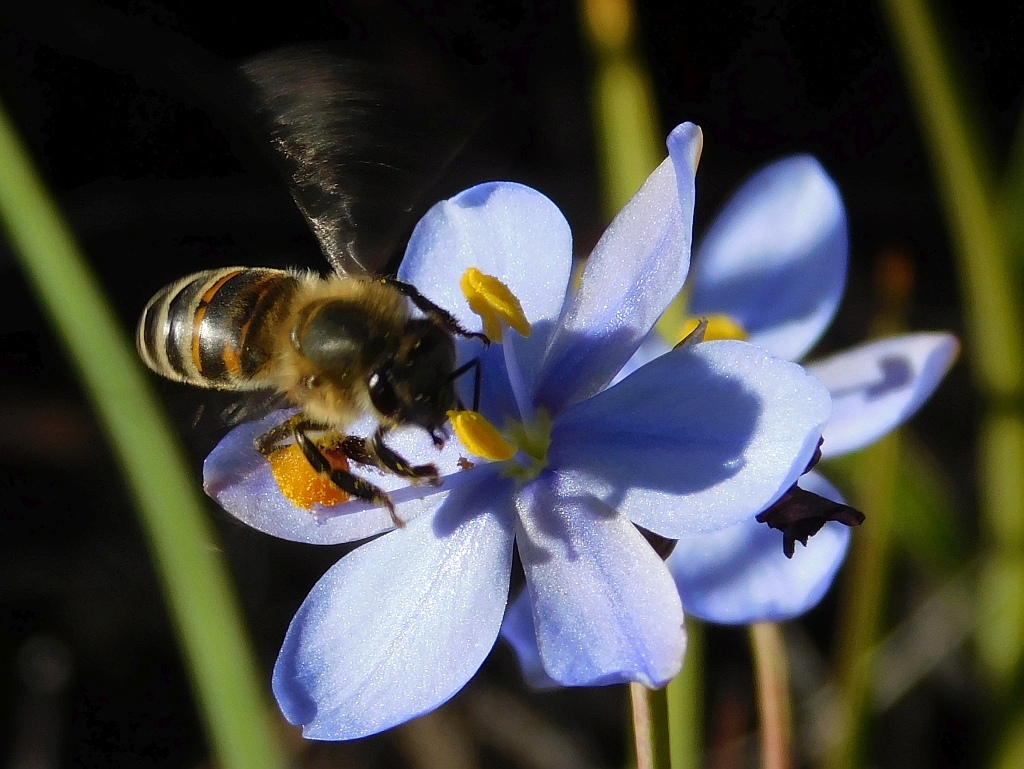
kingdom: Animalia
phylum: Arthropoda
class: Insecta
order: Hymenoptera
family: Apidae
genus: Apis
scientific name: Apis mellifera
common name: Honey bee
